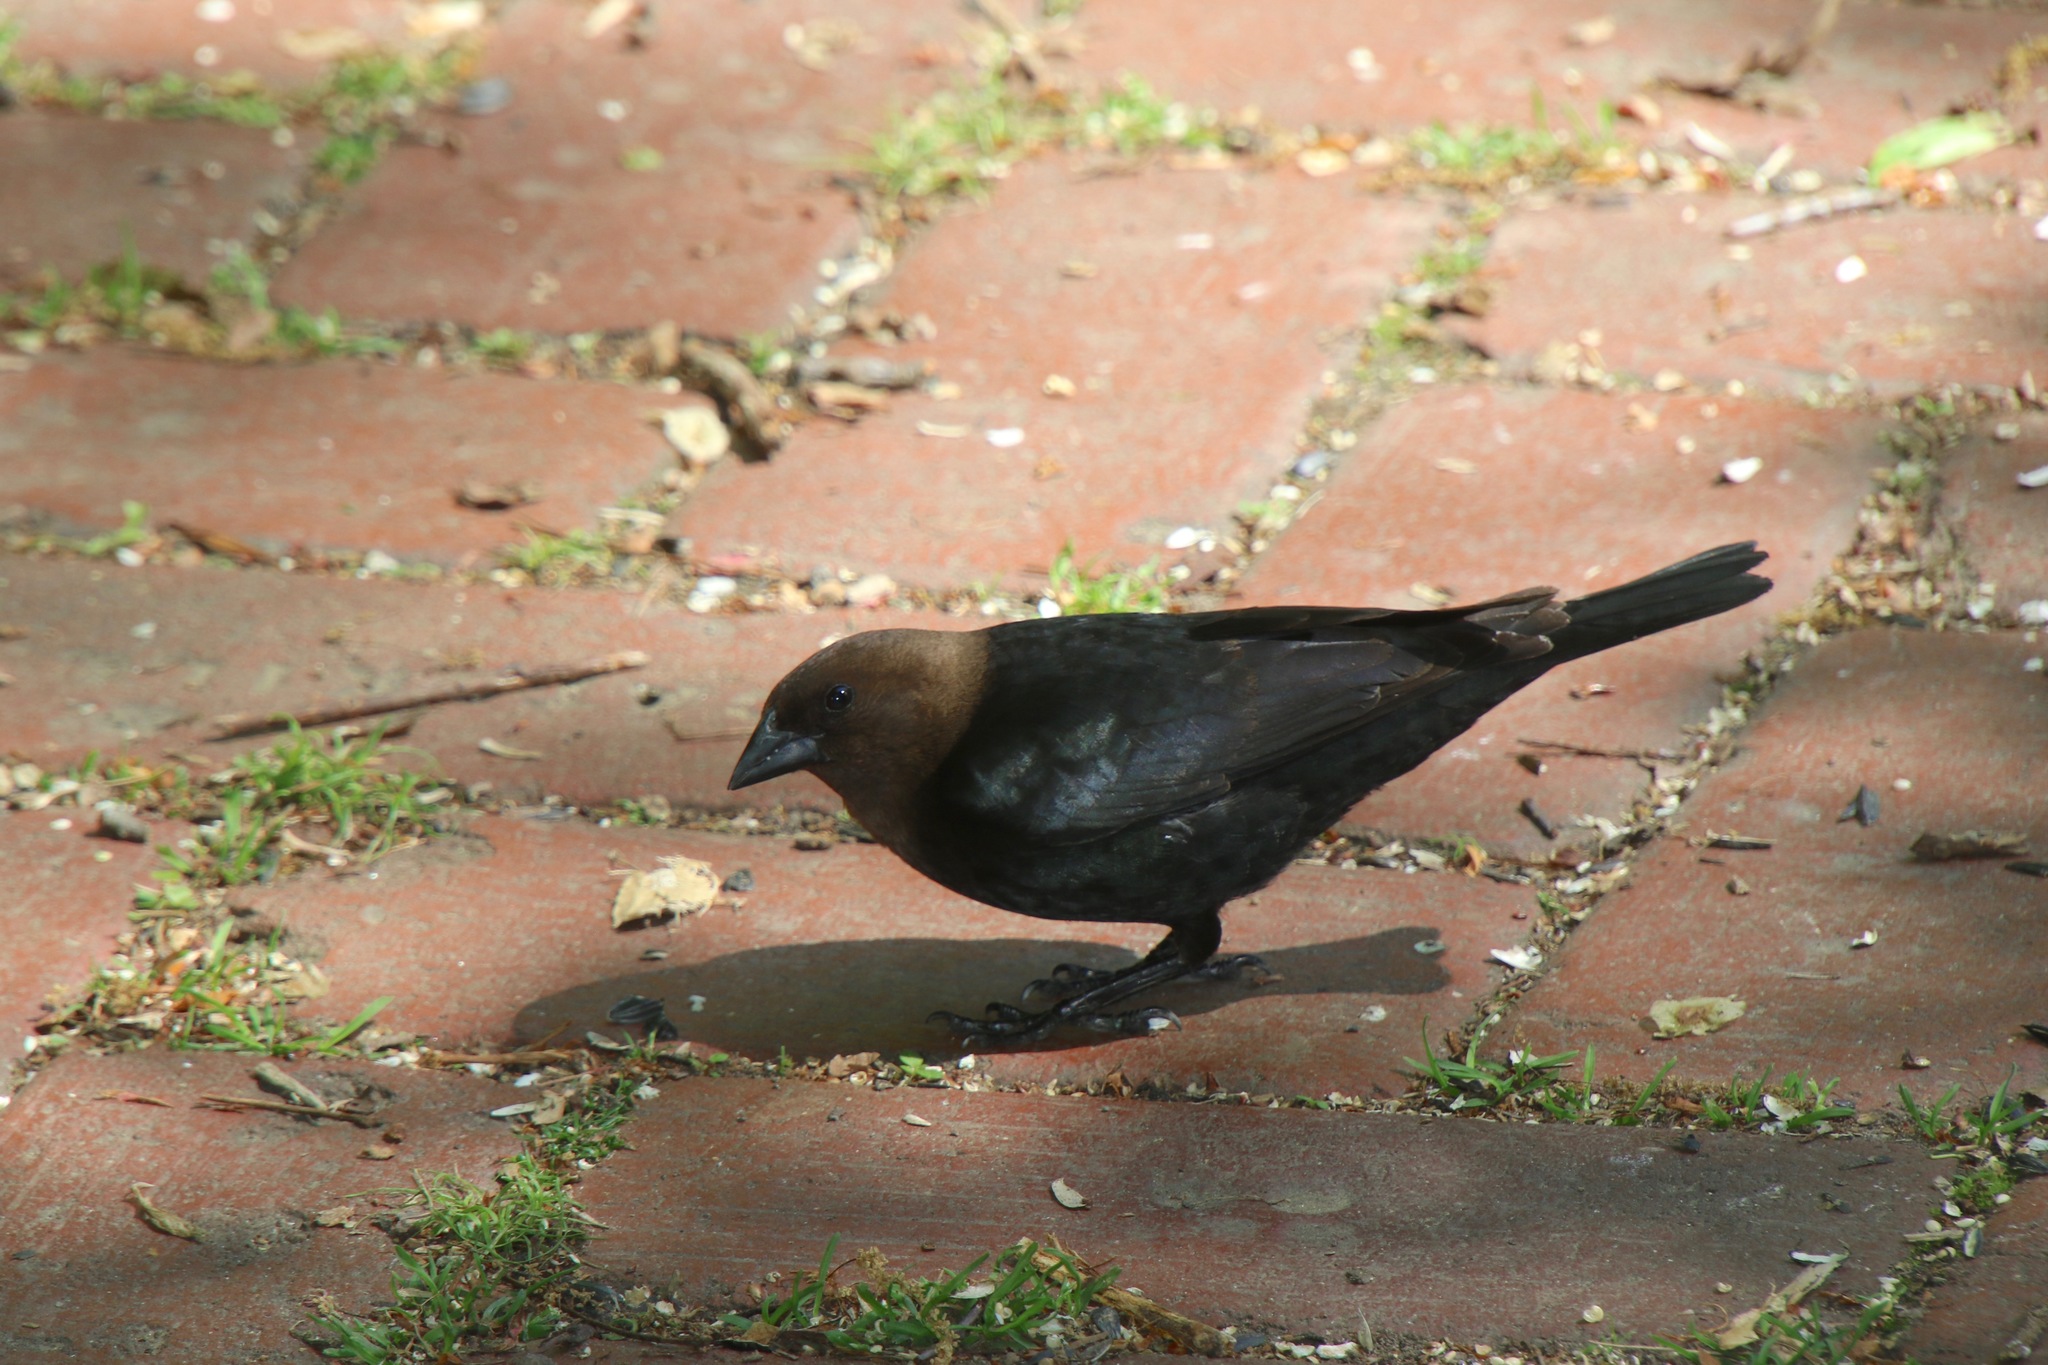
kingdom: Animalia
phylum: Chordata
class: Aves
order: Passeriformes
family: Icteridae
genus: Molothrus
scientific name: Molothrus ater
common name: Brown-headed cowbird
